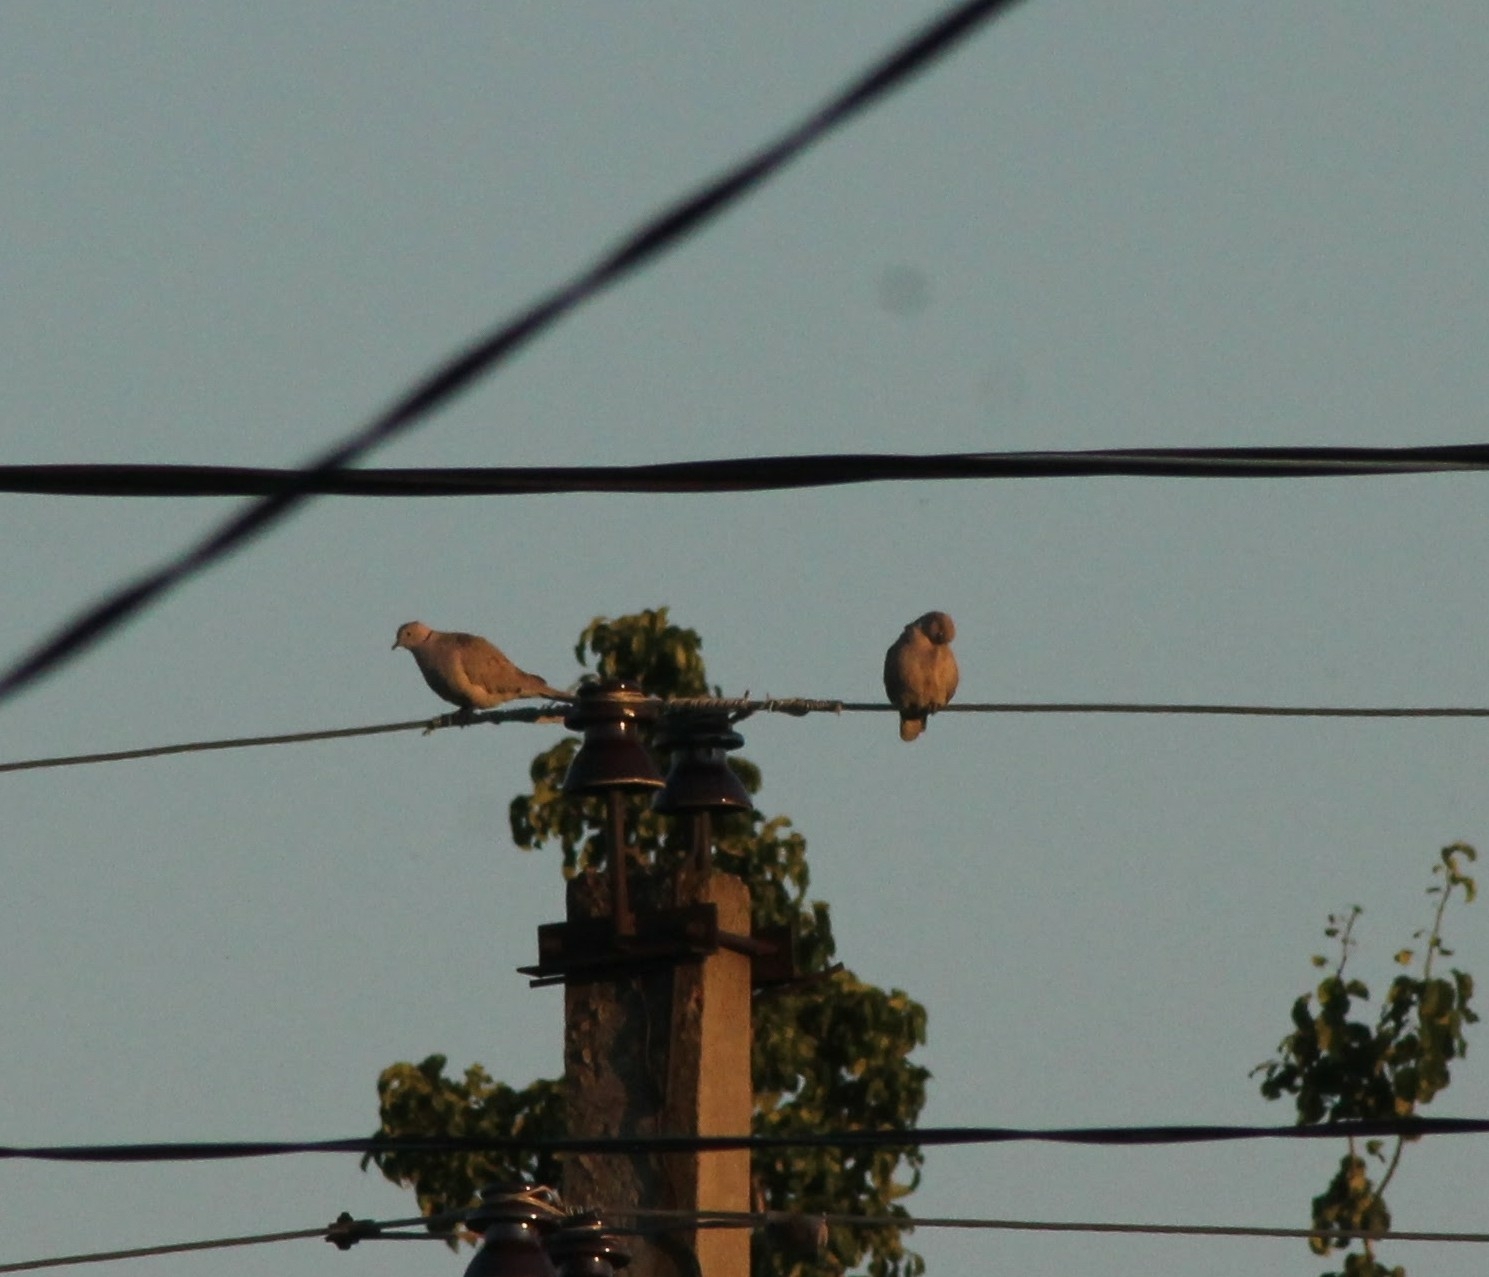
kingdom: Animalia
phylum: Chordata
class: Aves
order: Columbiformes
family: Columbidae
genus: Streptopelia
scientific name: Streptopelia decaocto
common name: Eurasian collared dove
